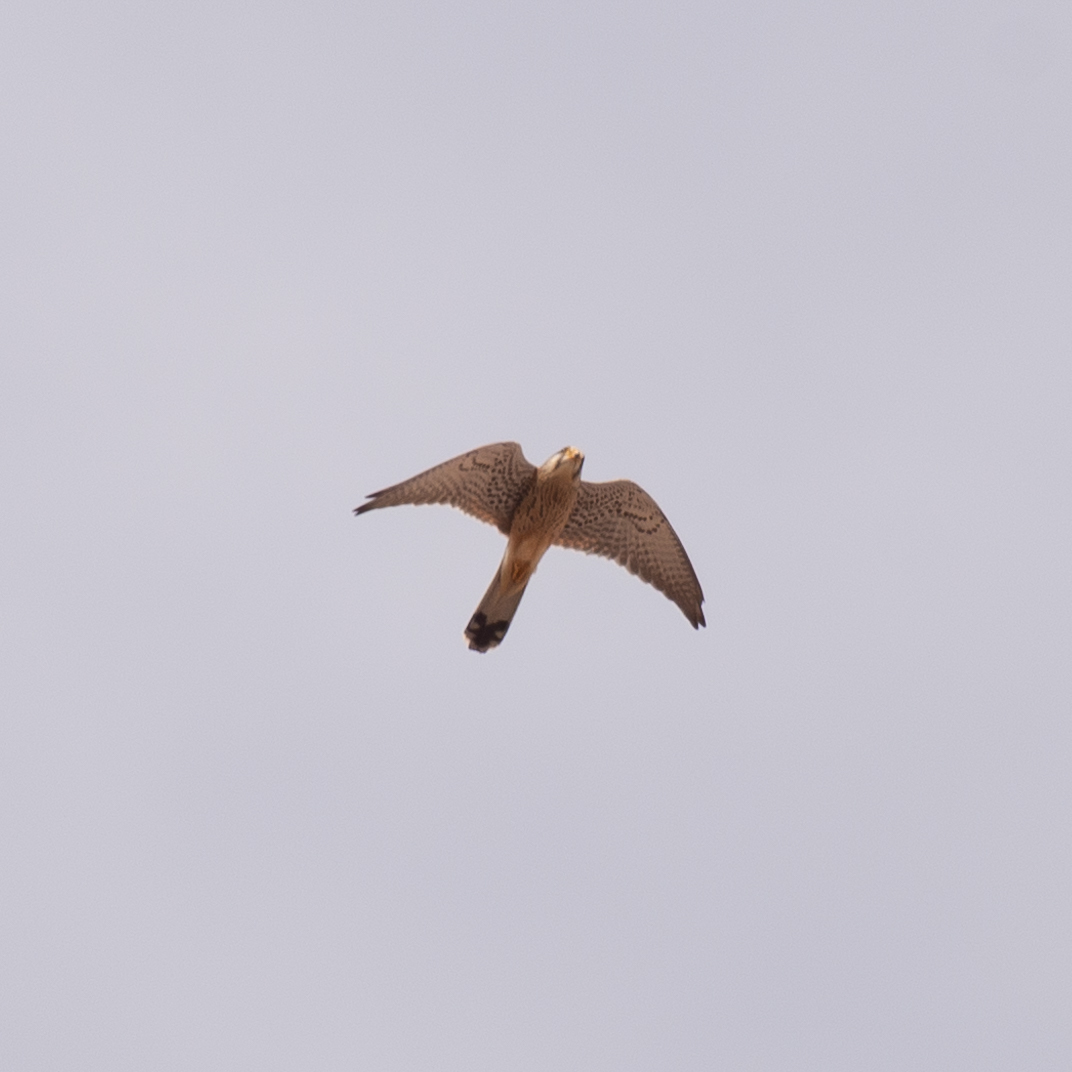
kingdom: Animalia
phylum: Chordata
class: Aves
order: Falconiformes
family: Falconidae
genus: Falco
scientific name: Falco tinnunculus
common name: Common kestrel
